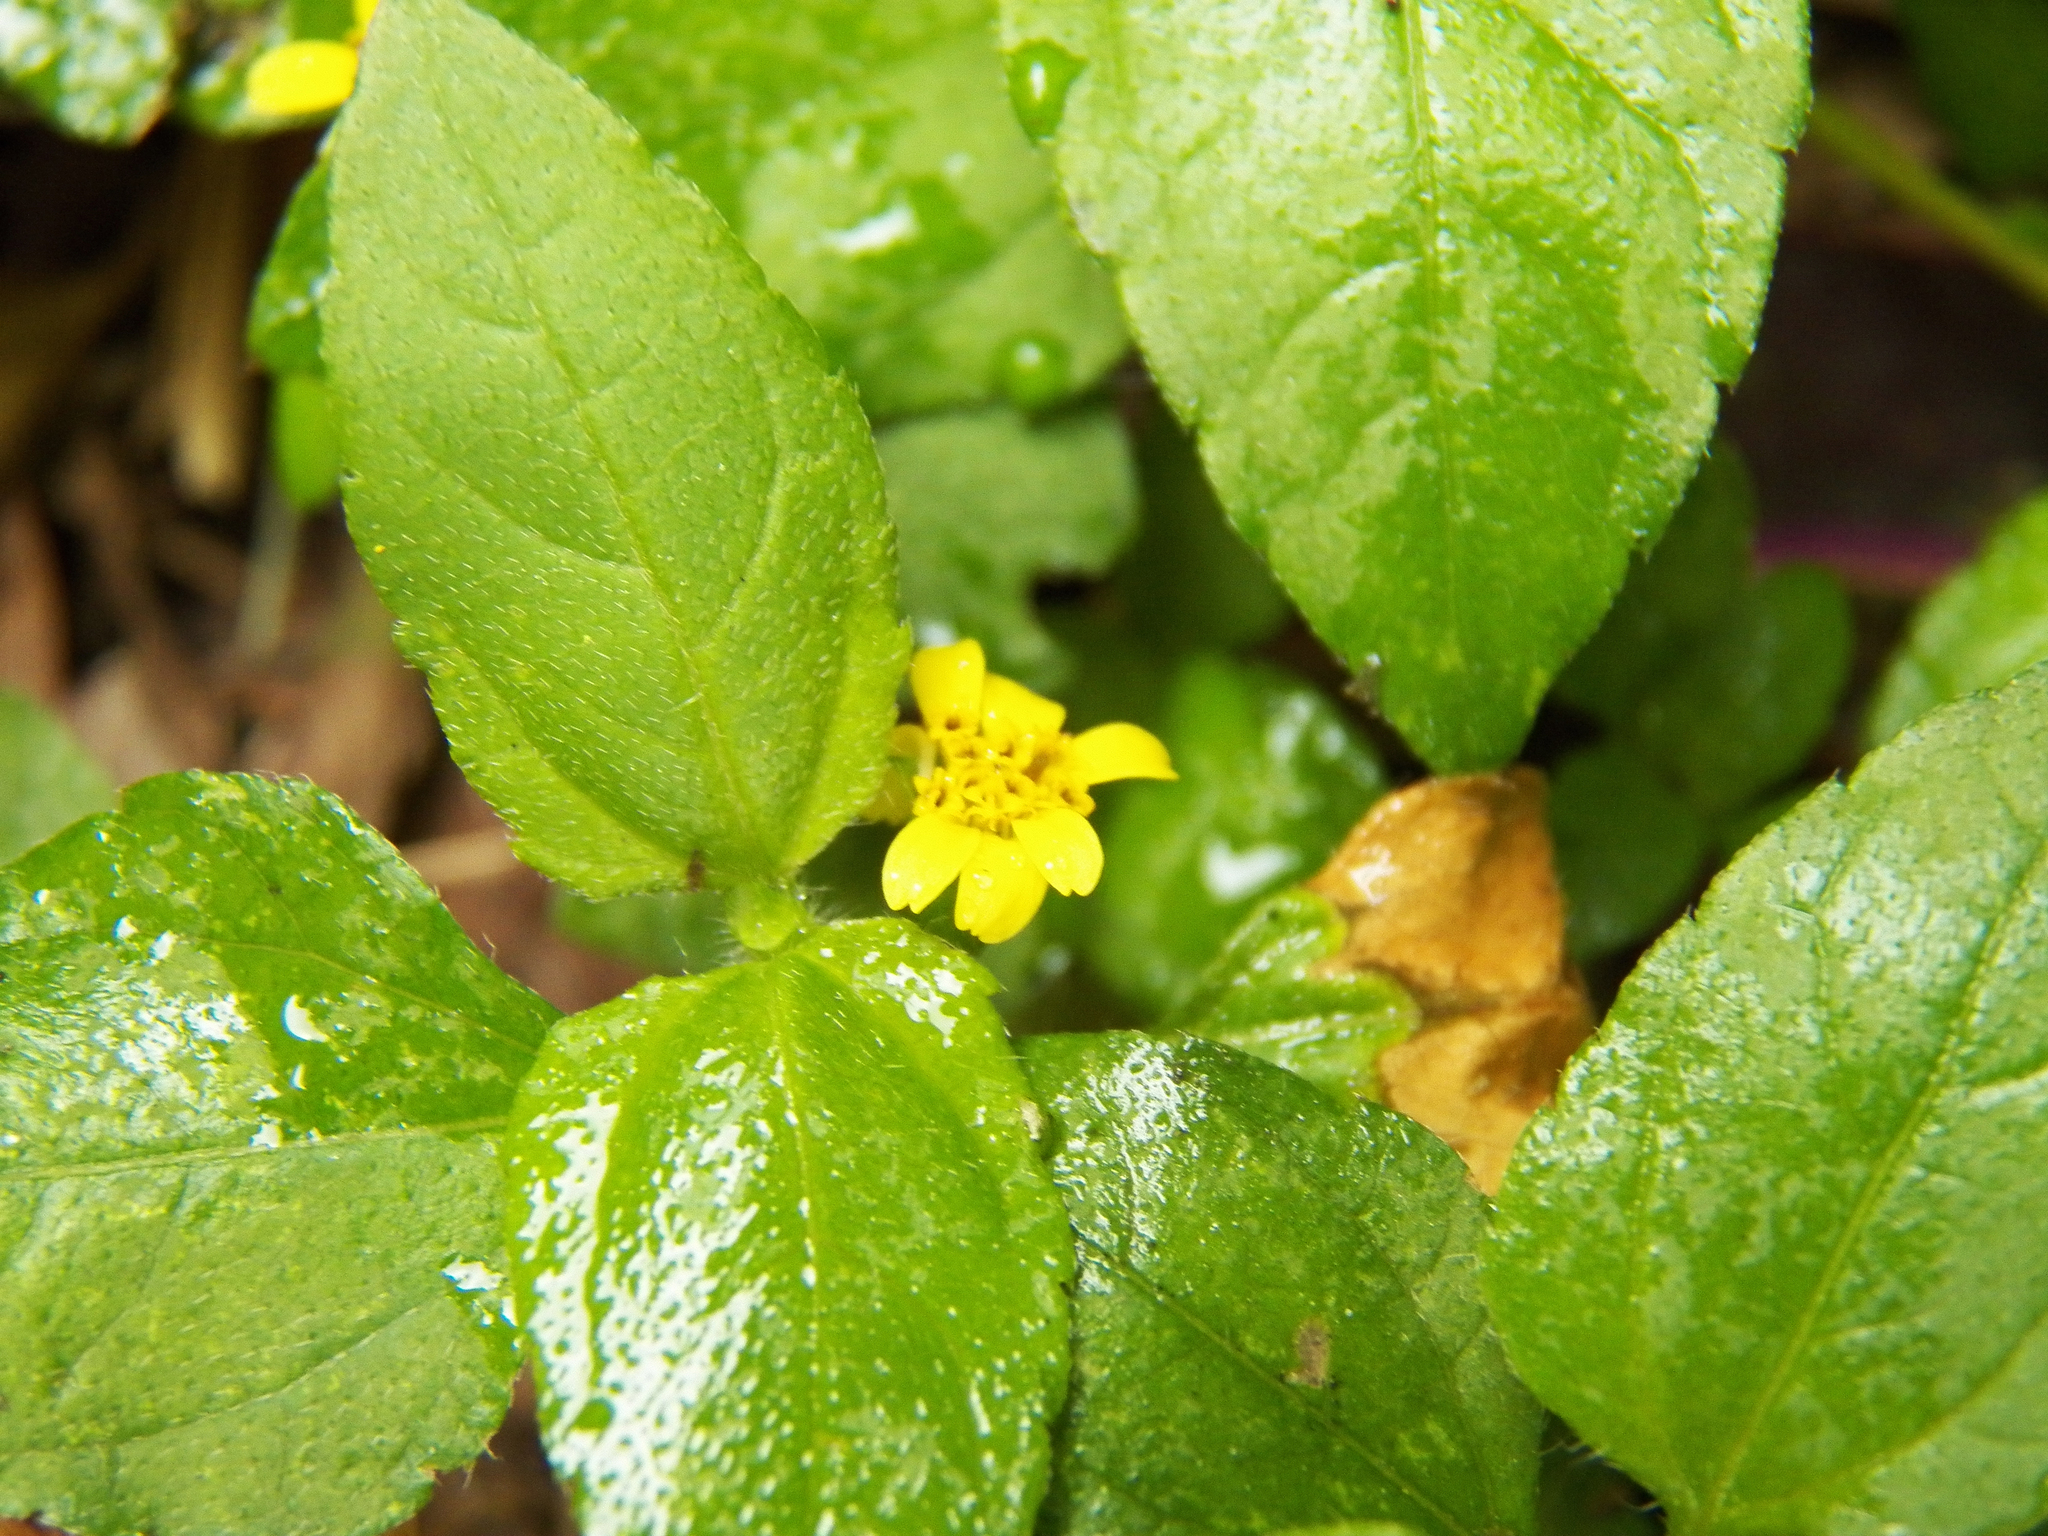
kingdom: Plantae
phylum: Tracheophyta
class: Magnoliopsida
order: Asterales
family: Asteraceae
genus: Calyptocarpus
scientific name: Calyptocarpus vialis
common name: Straggler daisy
